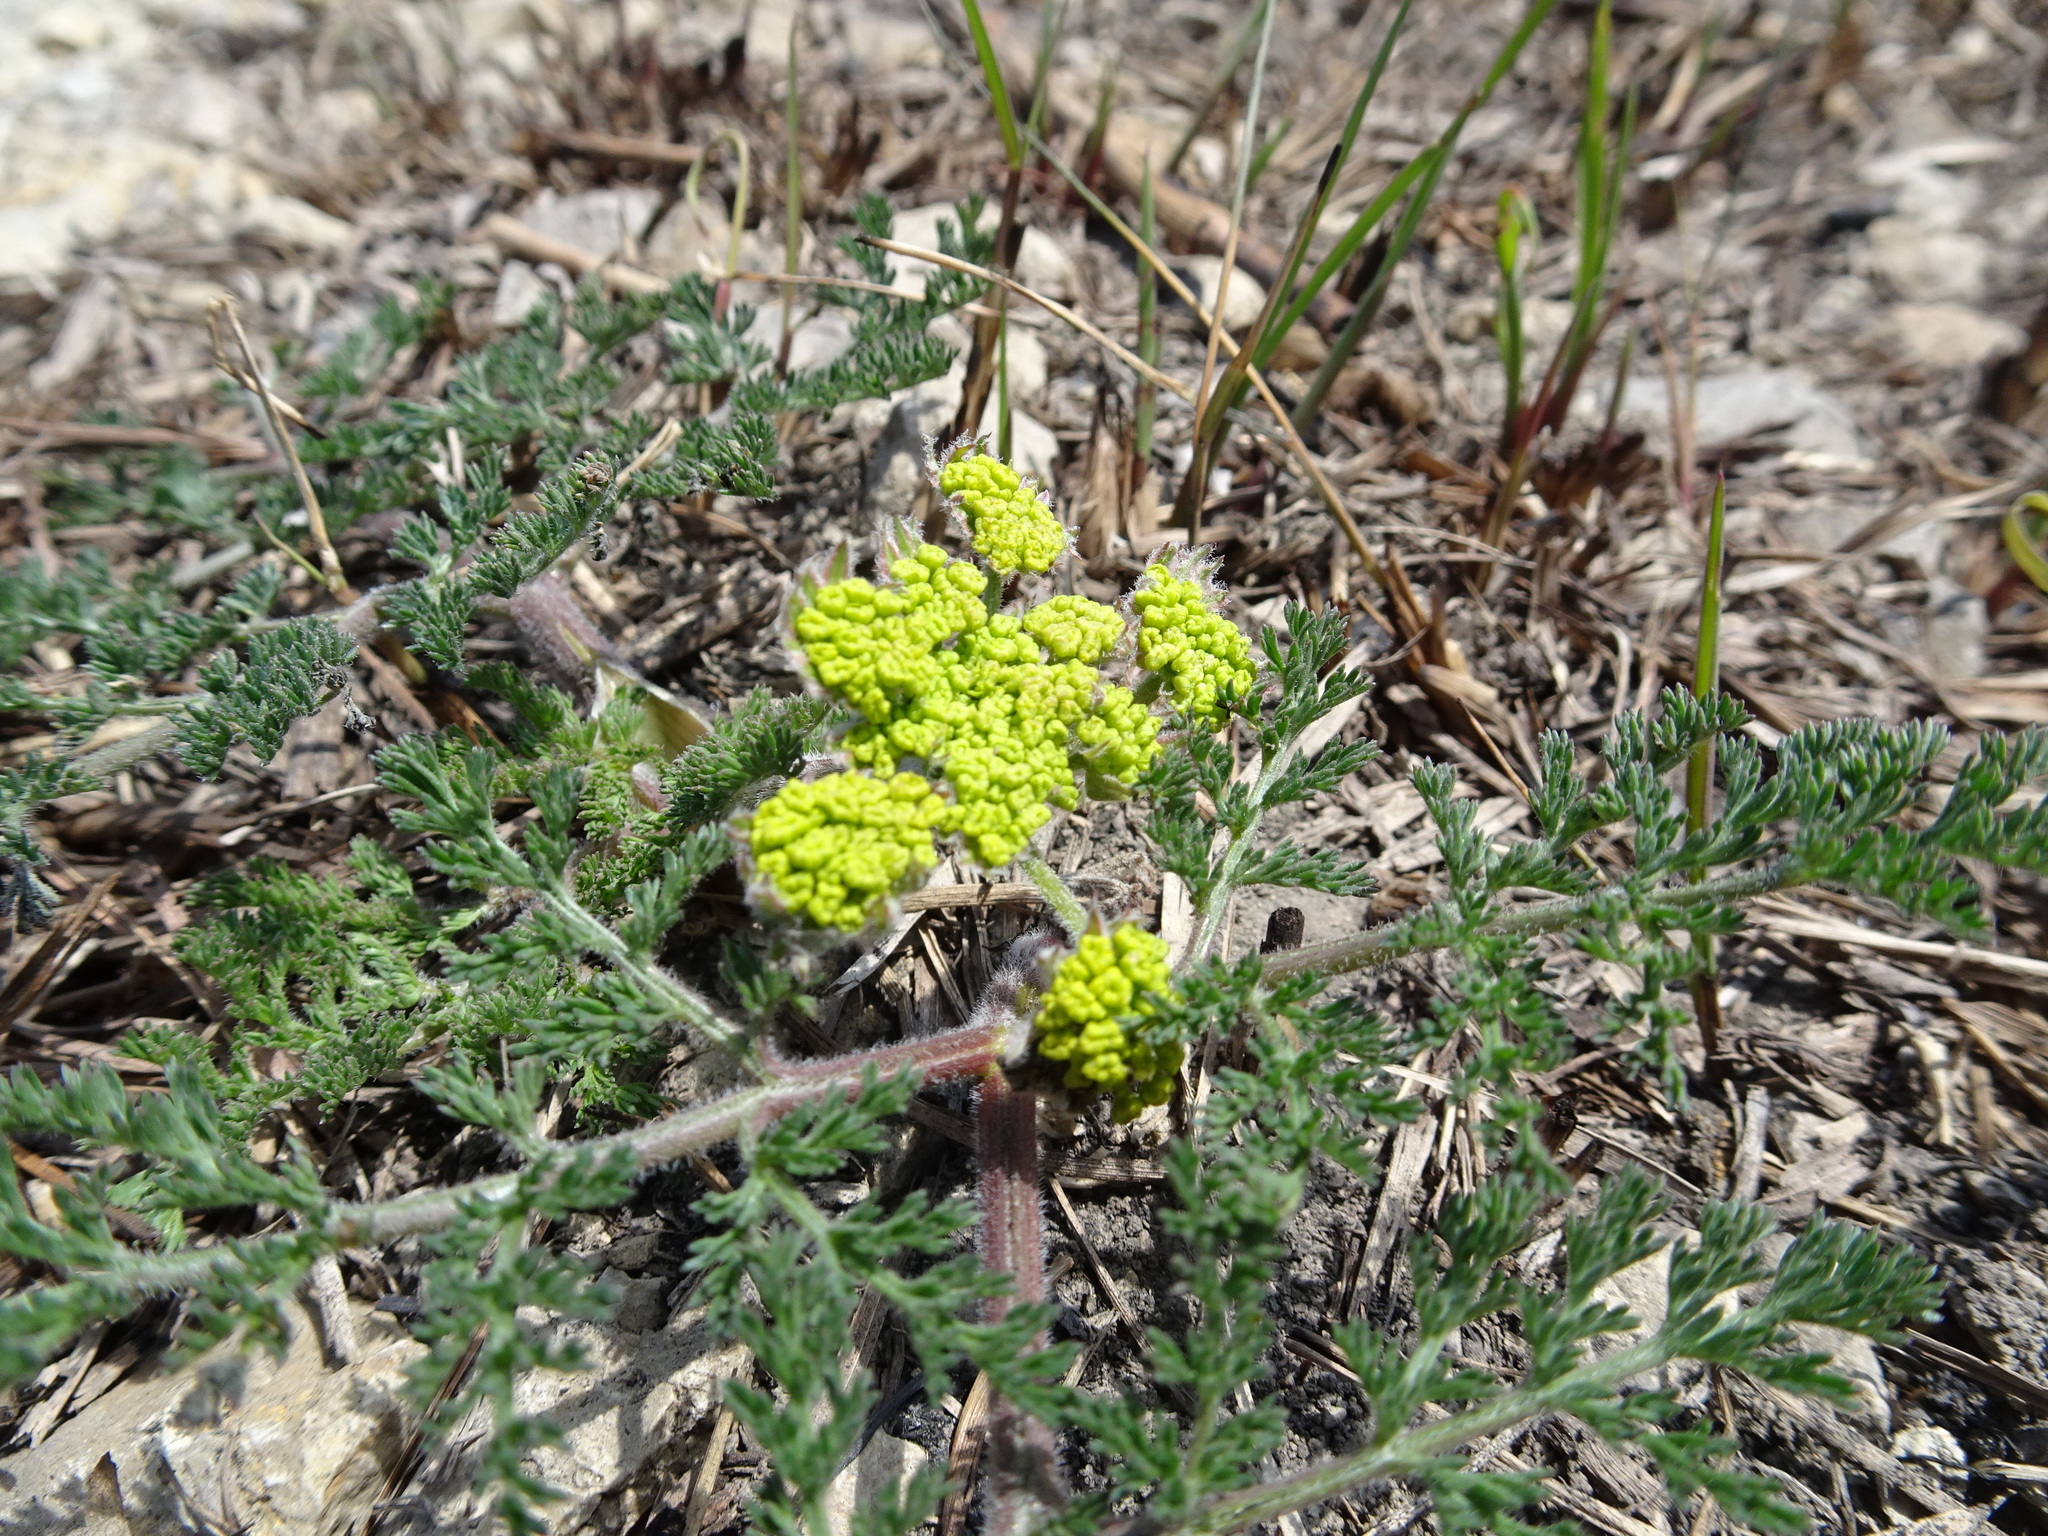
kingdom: Plantae
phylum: Tracheophyta
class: Magnoliopsida
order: Apiales
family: Apiaceae
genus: Lomatium
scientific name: Lomatium foeniculaceum
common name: Desert-parsley
